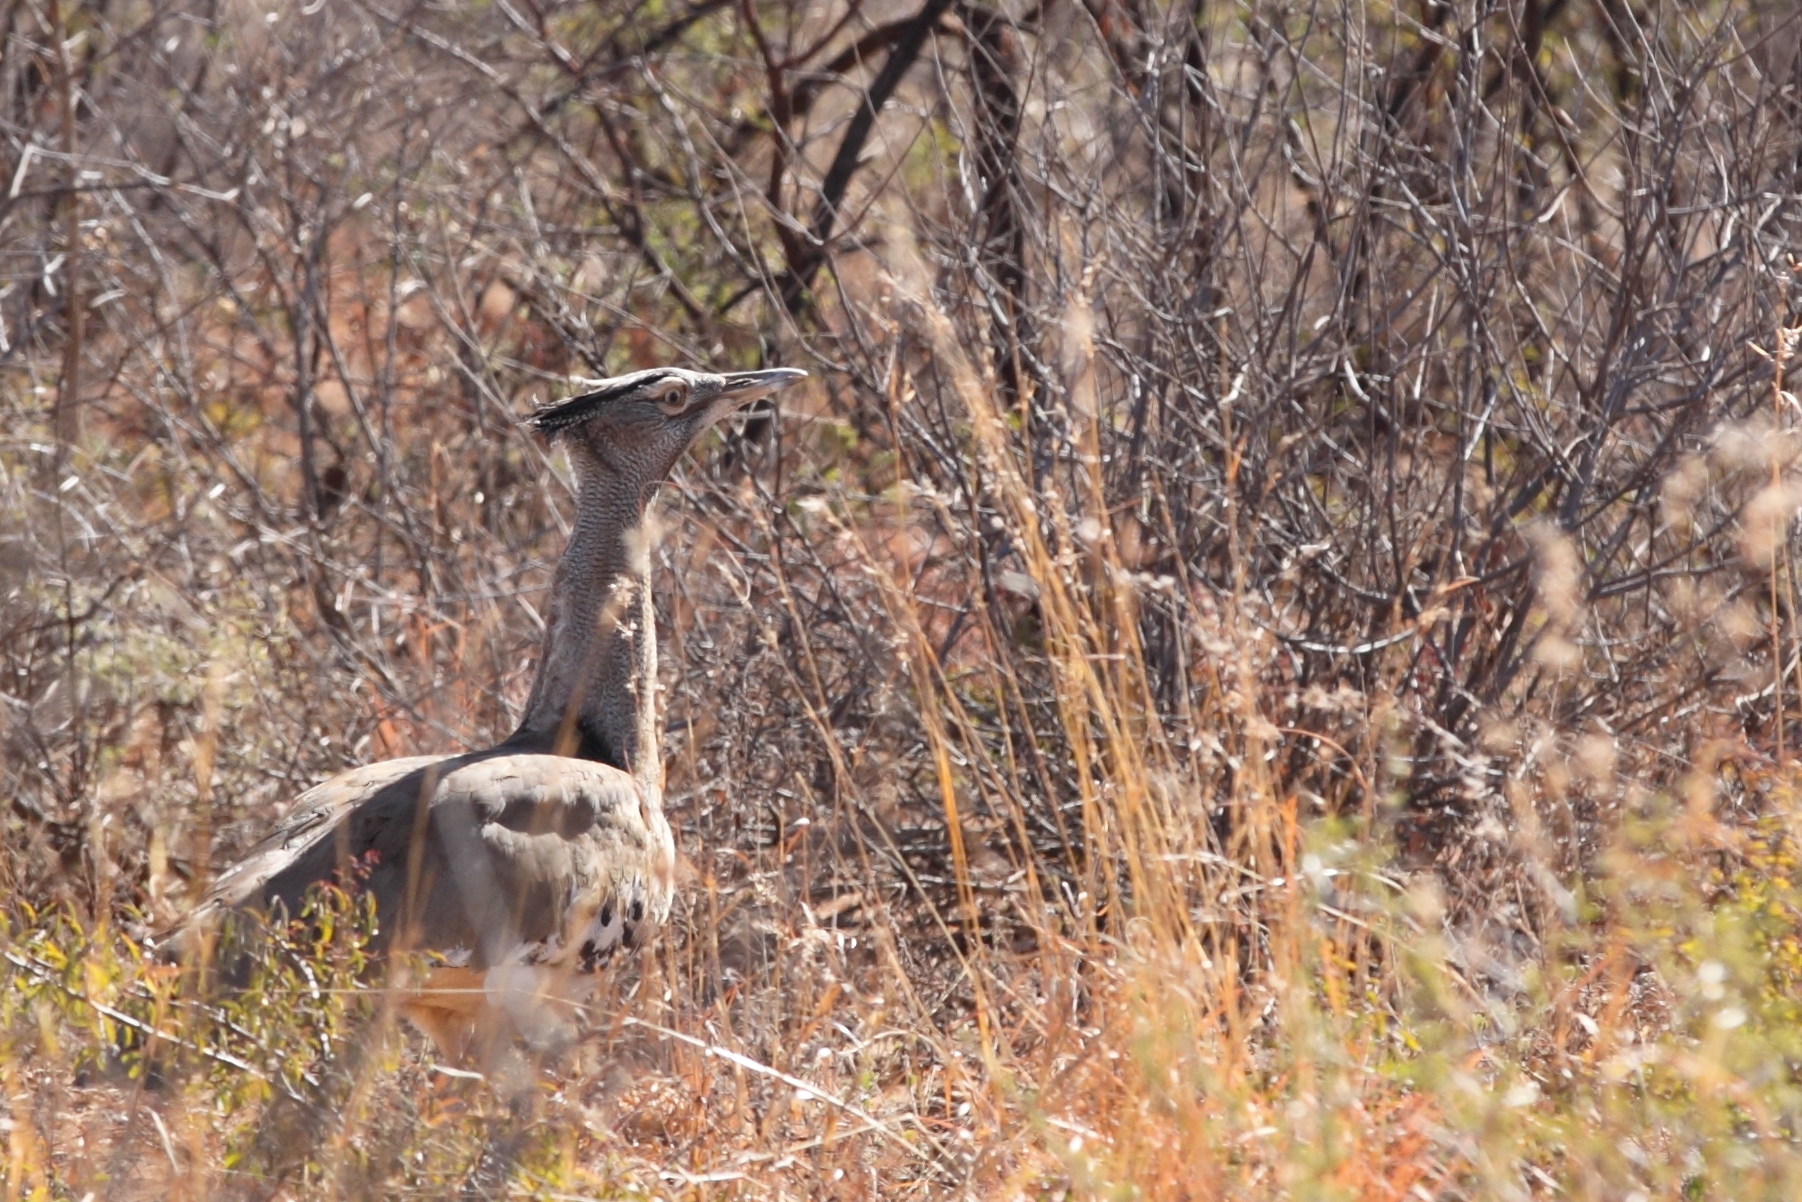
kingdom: Animalia
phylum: Chordata
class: Aves
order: Otidiformes
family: Otididae
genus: Ardeotis
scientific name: Ardeotis kori
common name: Kori bustard
